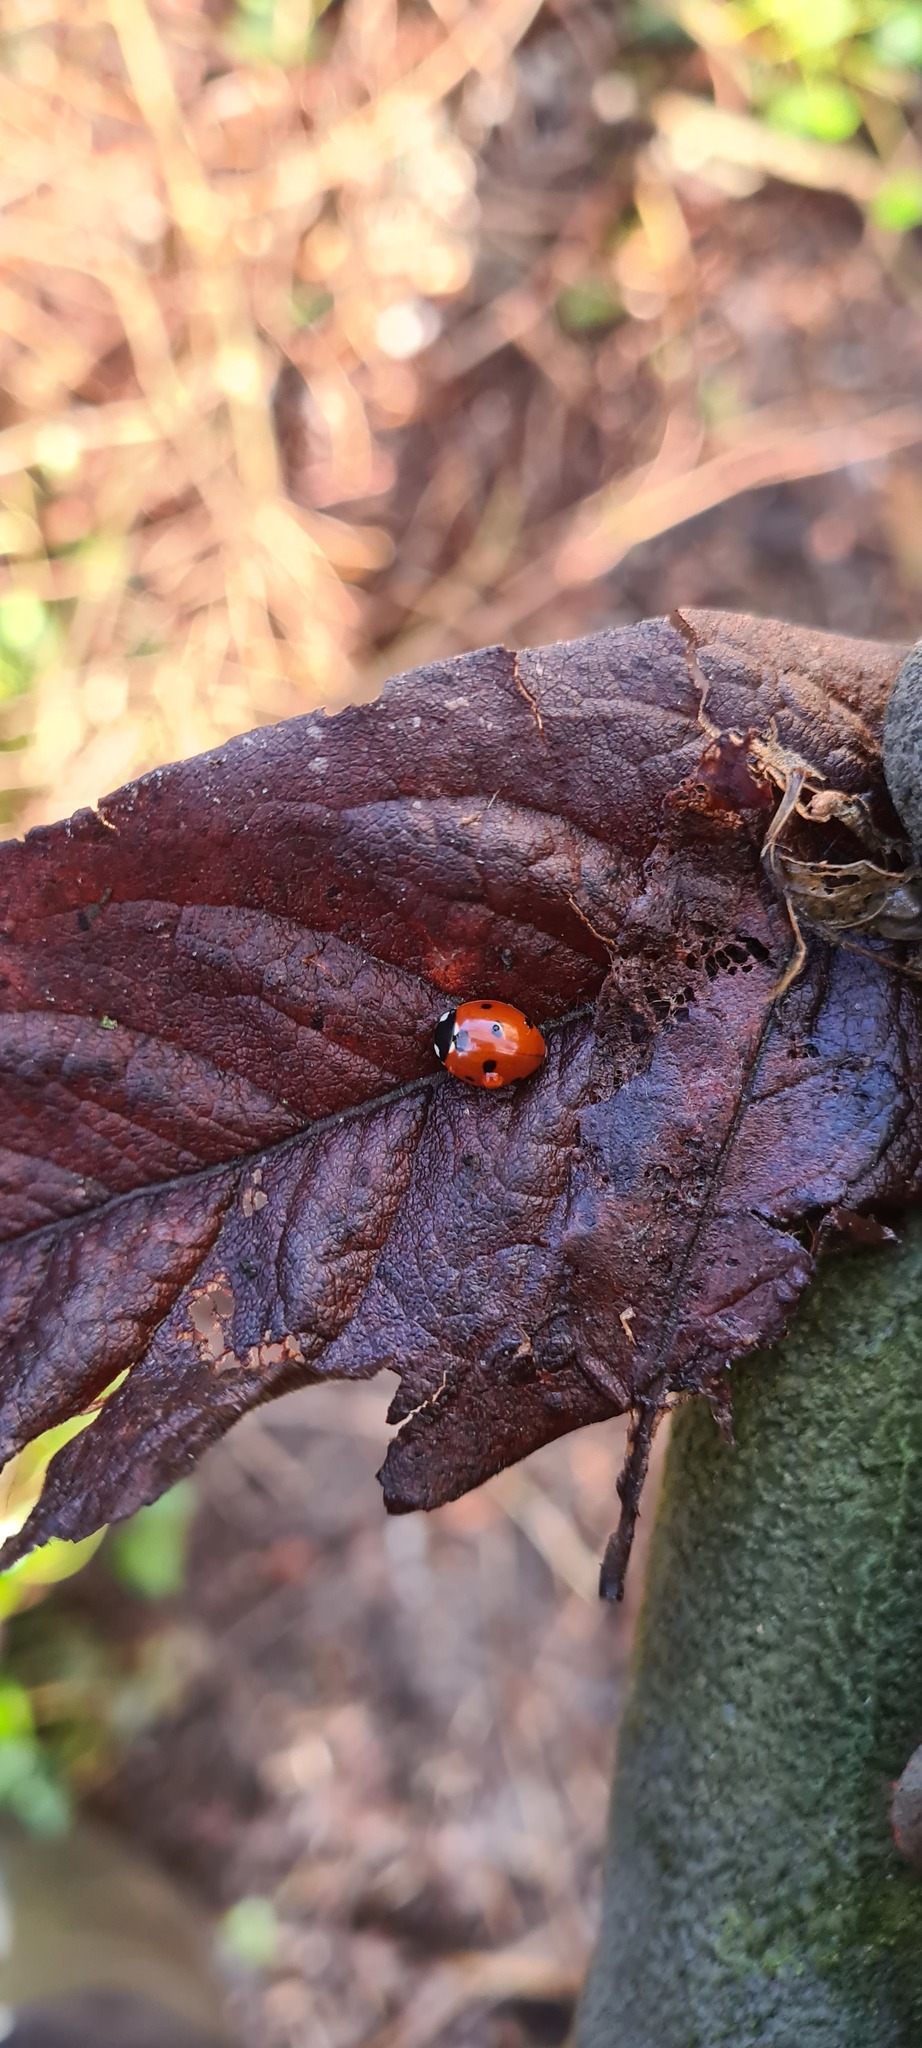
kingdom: Animalia
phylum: Arthropoda
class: Insecta
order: Coleoptera
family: Coccinellidae
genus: Coccinella
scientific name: Coccinella septempunctata
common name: Sevenspotted lady beetle
